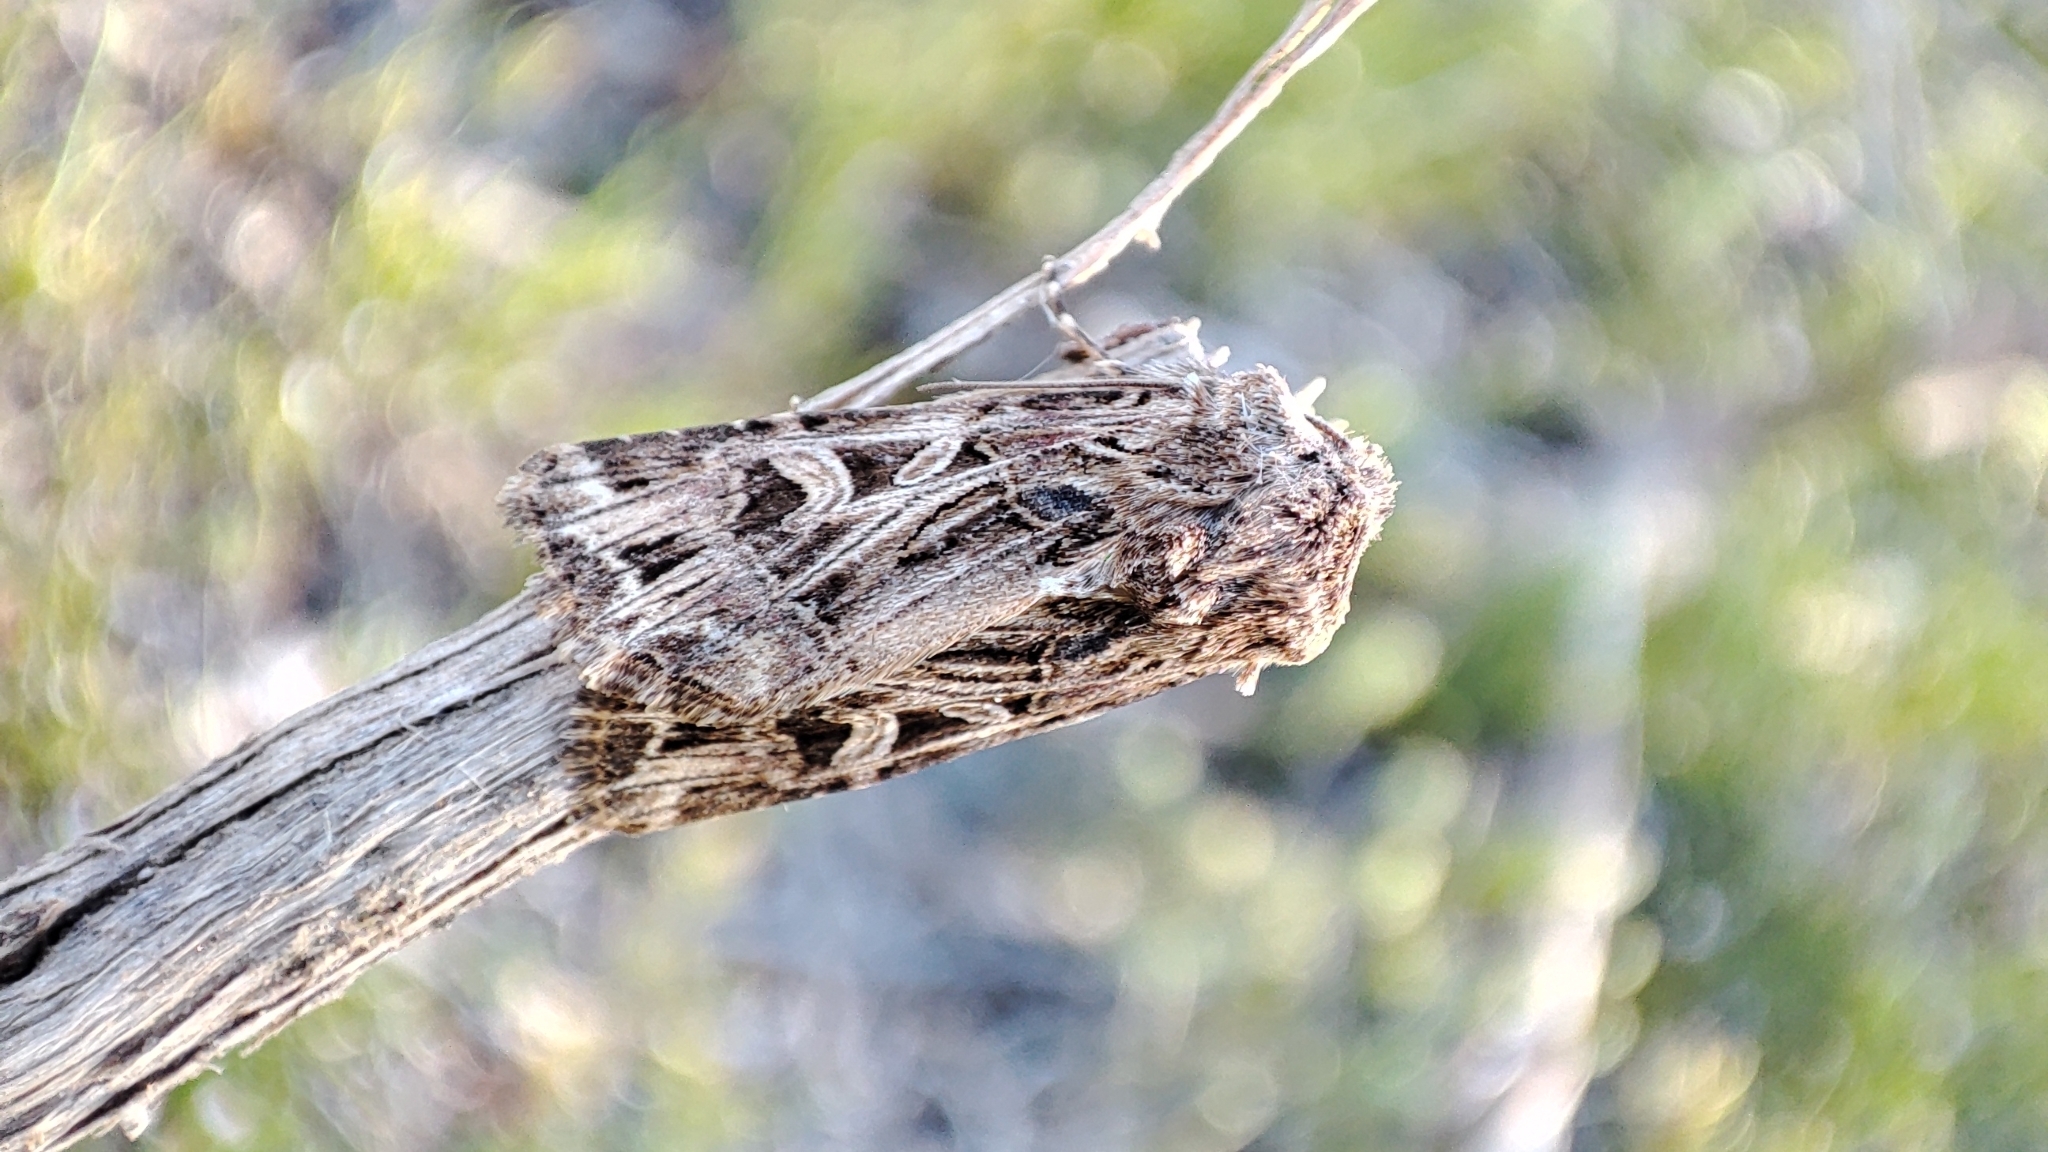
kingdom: Animalia
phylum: Arthropoda
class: Insecta
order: Lepidoptera
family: Noctuidae
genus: Anarta
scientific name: Anarta dianthi
